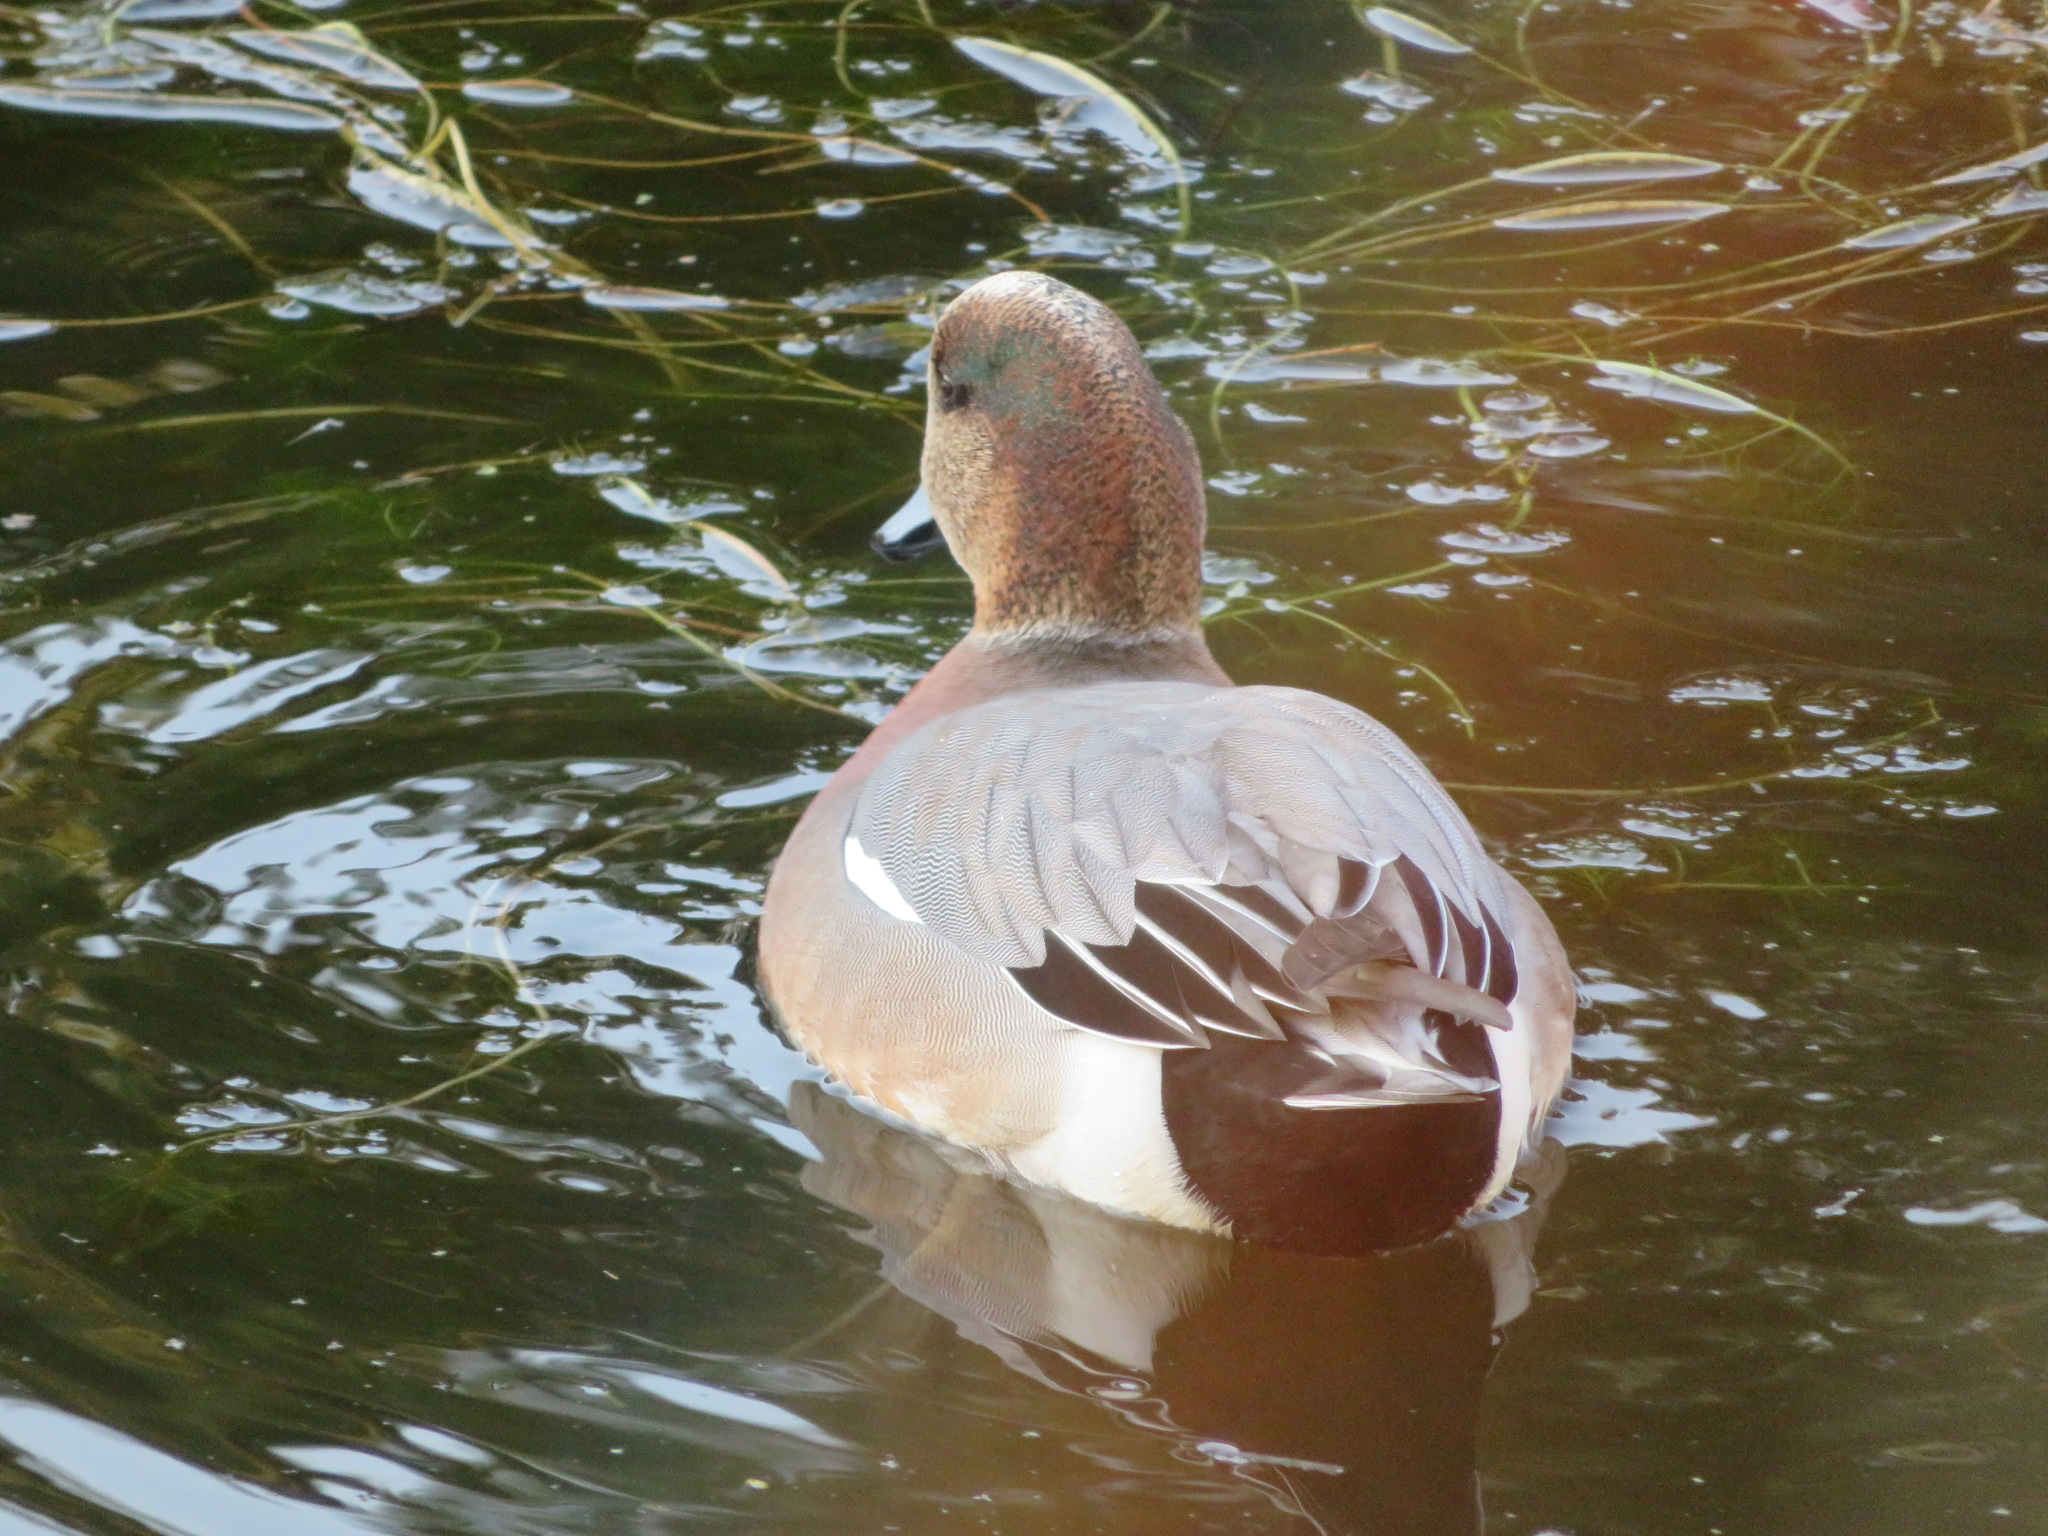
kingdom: Animalia
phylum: Chordata
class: Aves
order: Anseriformes
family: Anatidae
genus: Mareca
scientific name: Mareca
